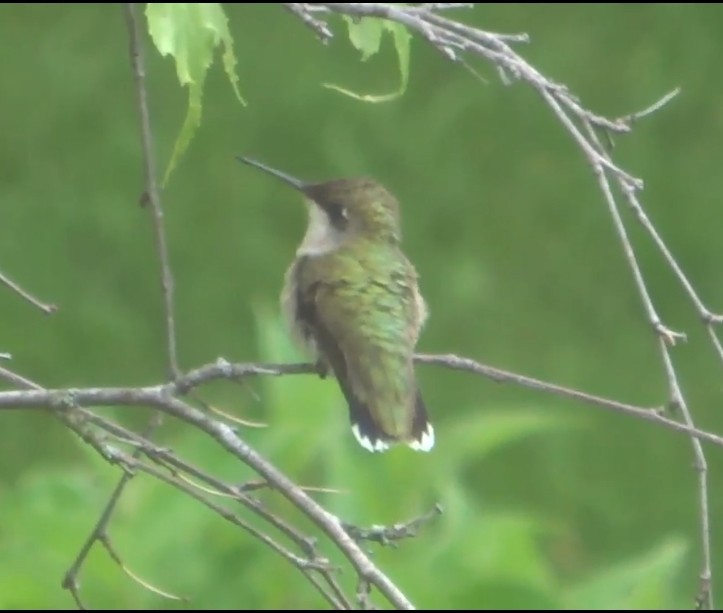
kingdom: Animalia
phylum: Chordata
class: Aves
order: Apodiformes
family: Trochilidae
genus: Archilochus
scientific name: Archilochus colubris
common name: Ruby-throated hummingbird
